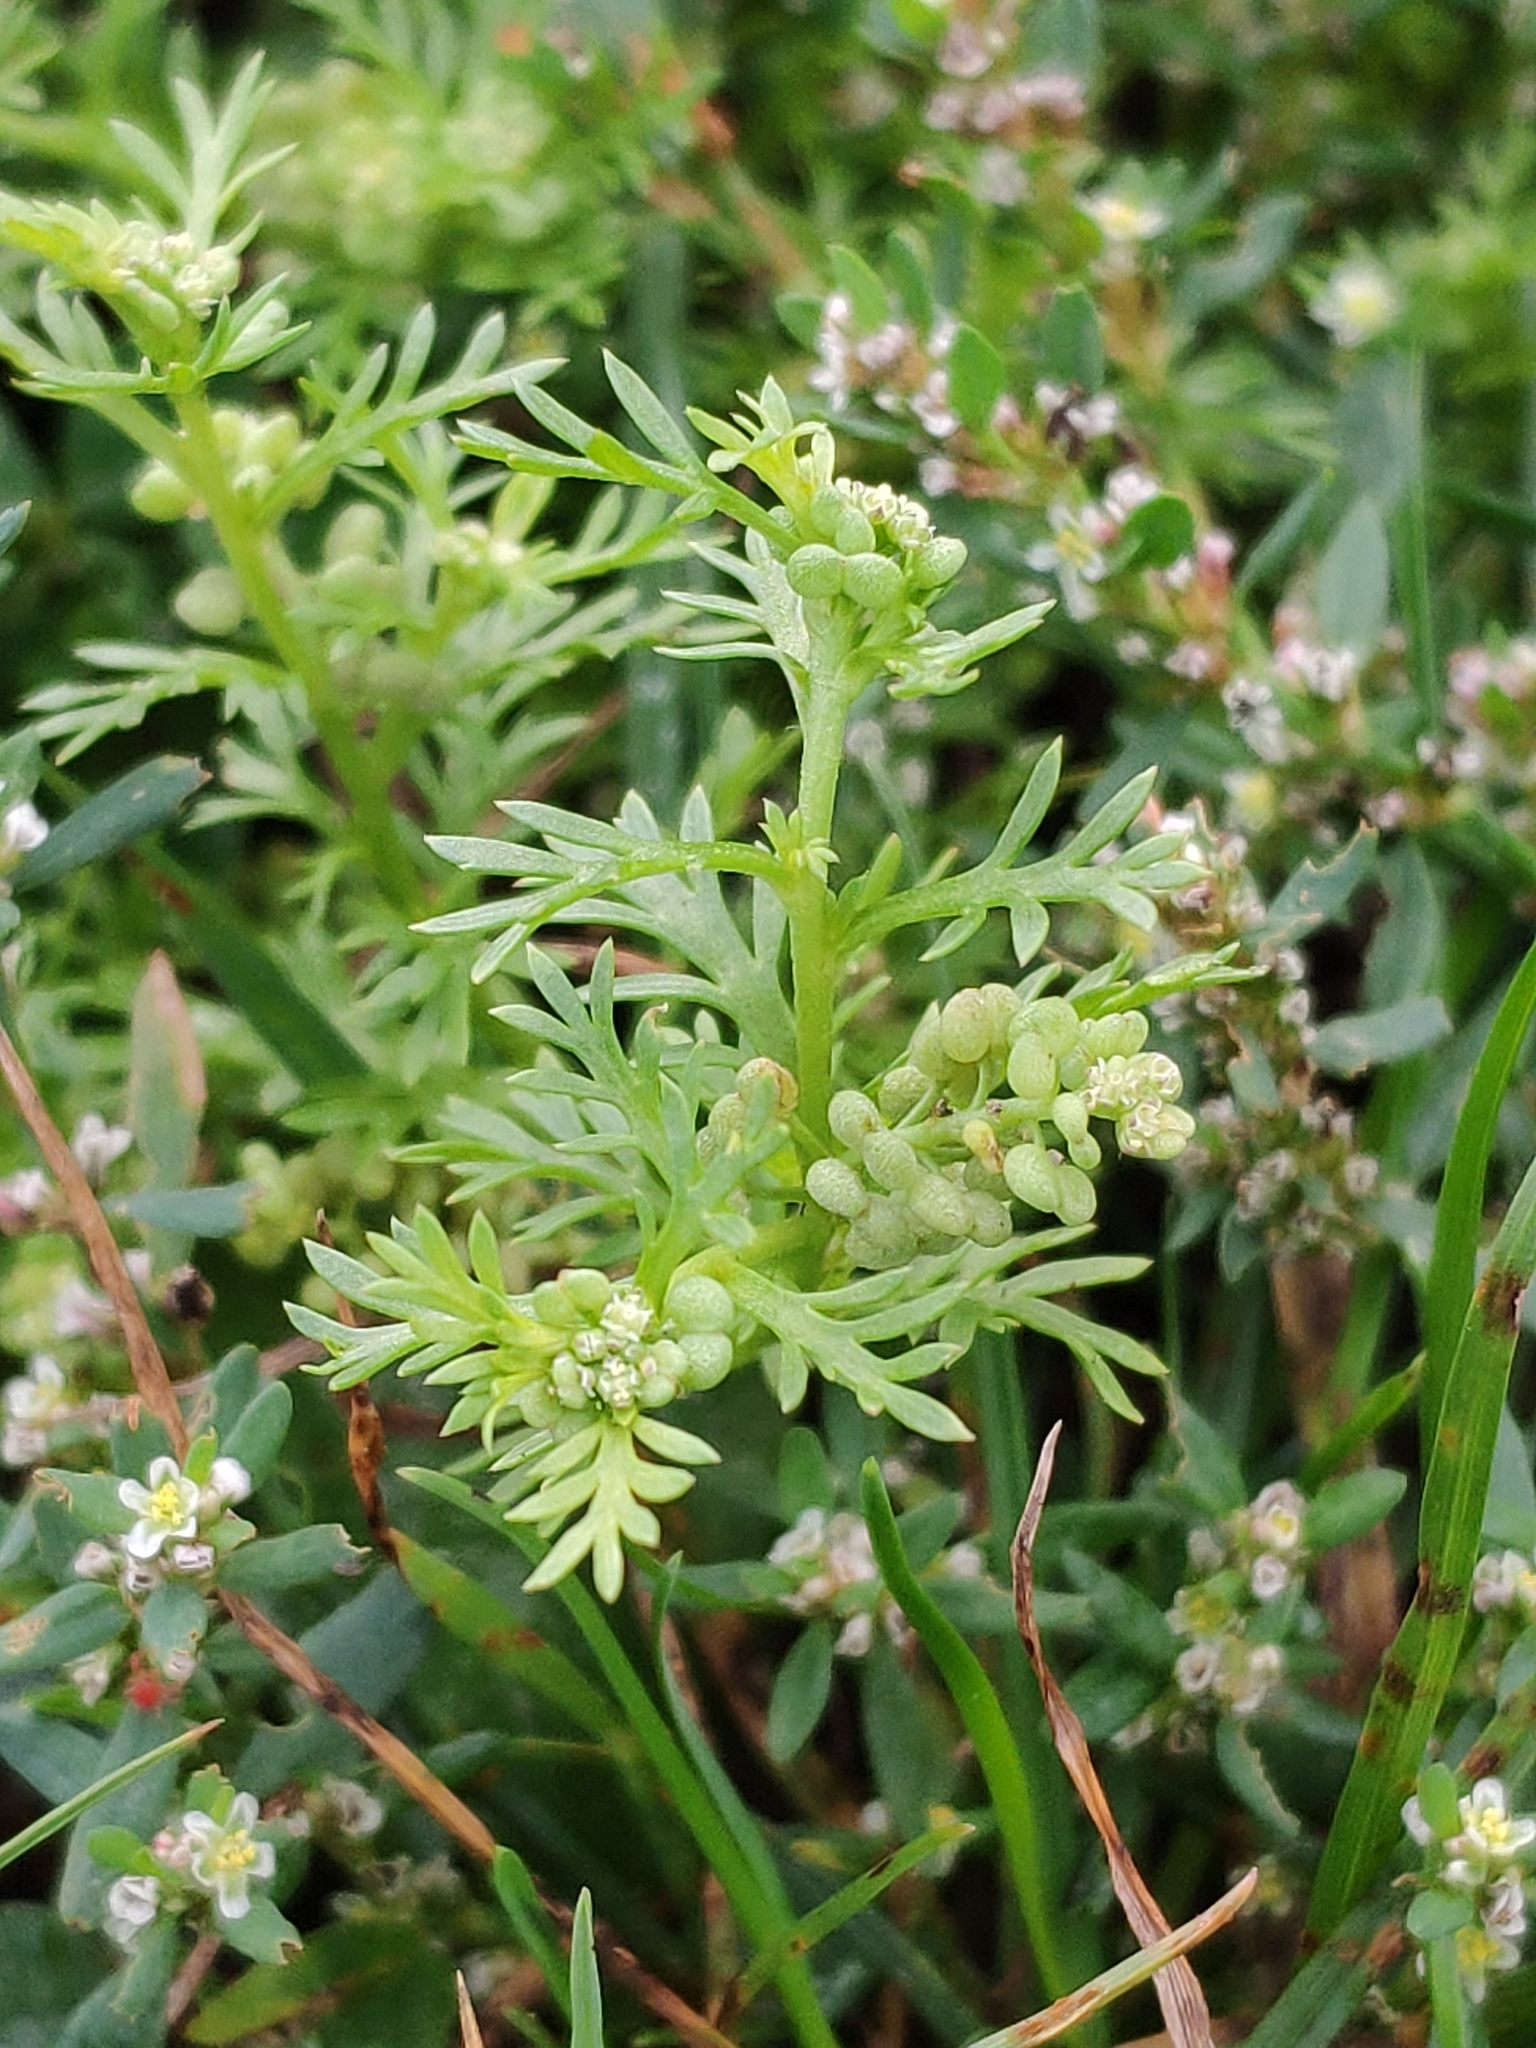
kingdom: Plantae
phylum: Tracheophyta
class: Magnoliopsida
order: Brassicales
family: Brassicaceae
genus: Lepidium
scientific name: Lepidium didymum
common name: Lesser swinecress
